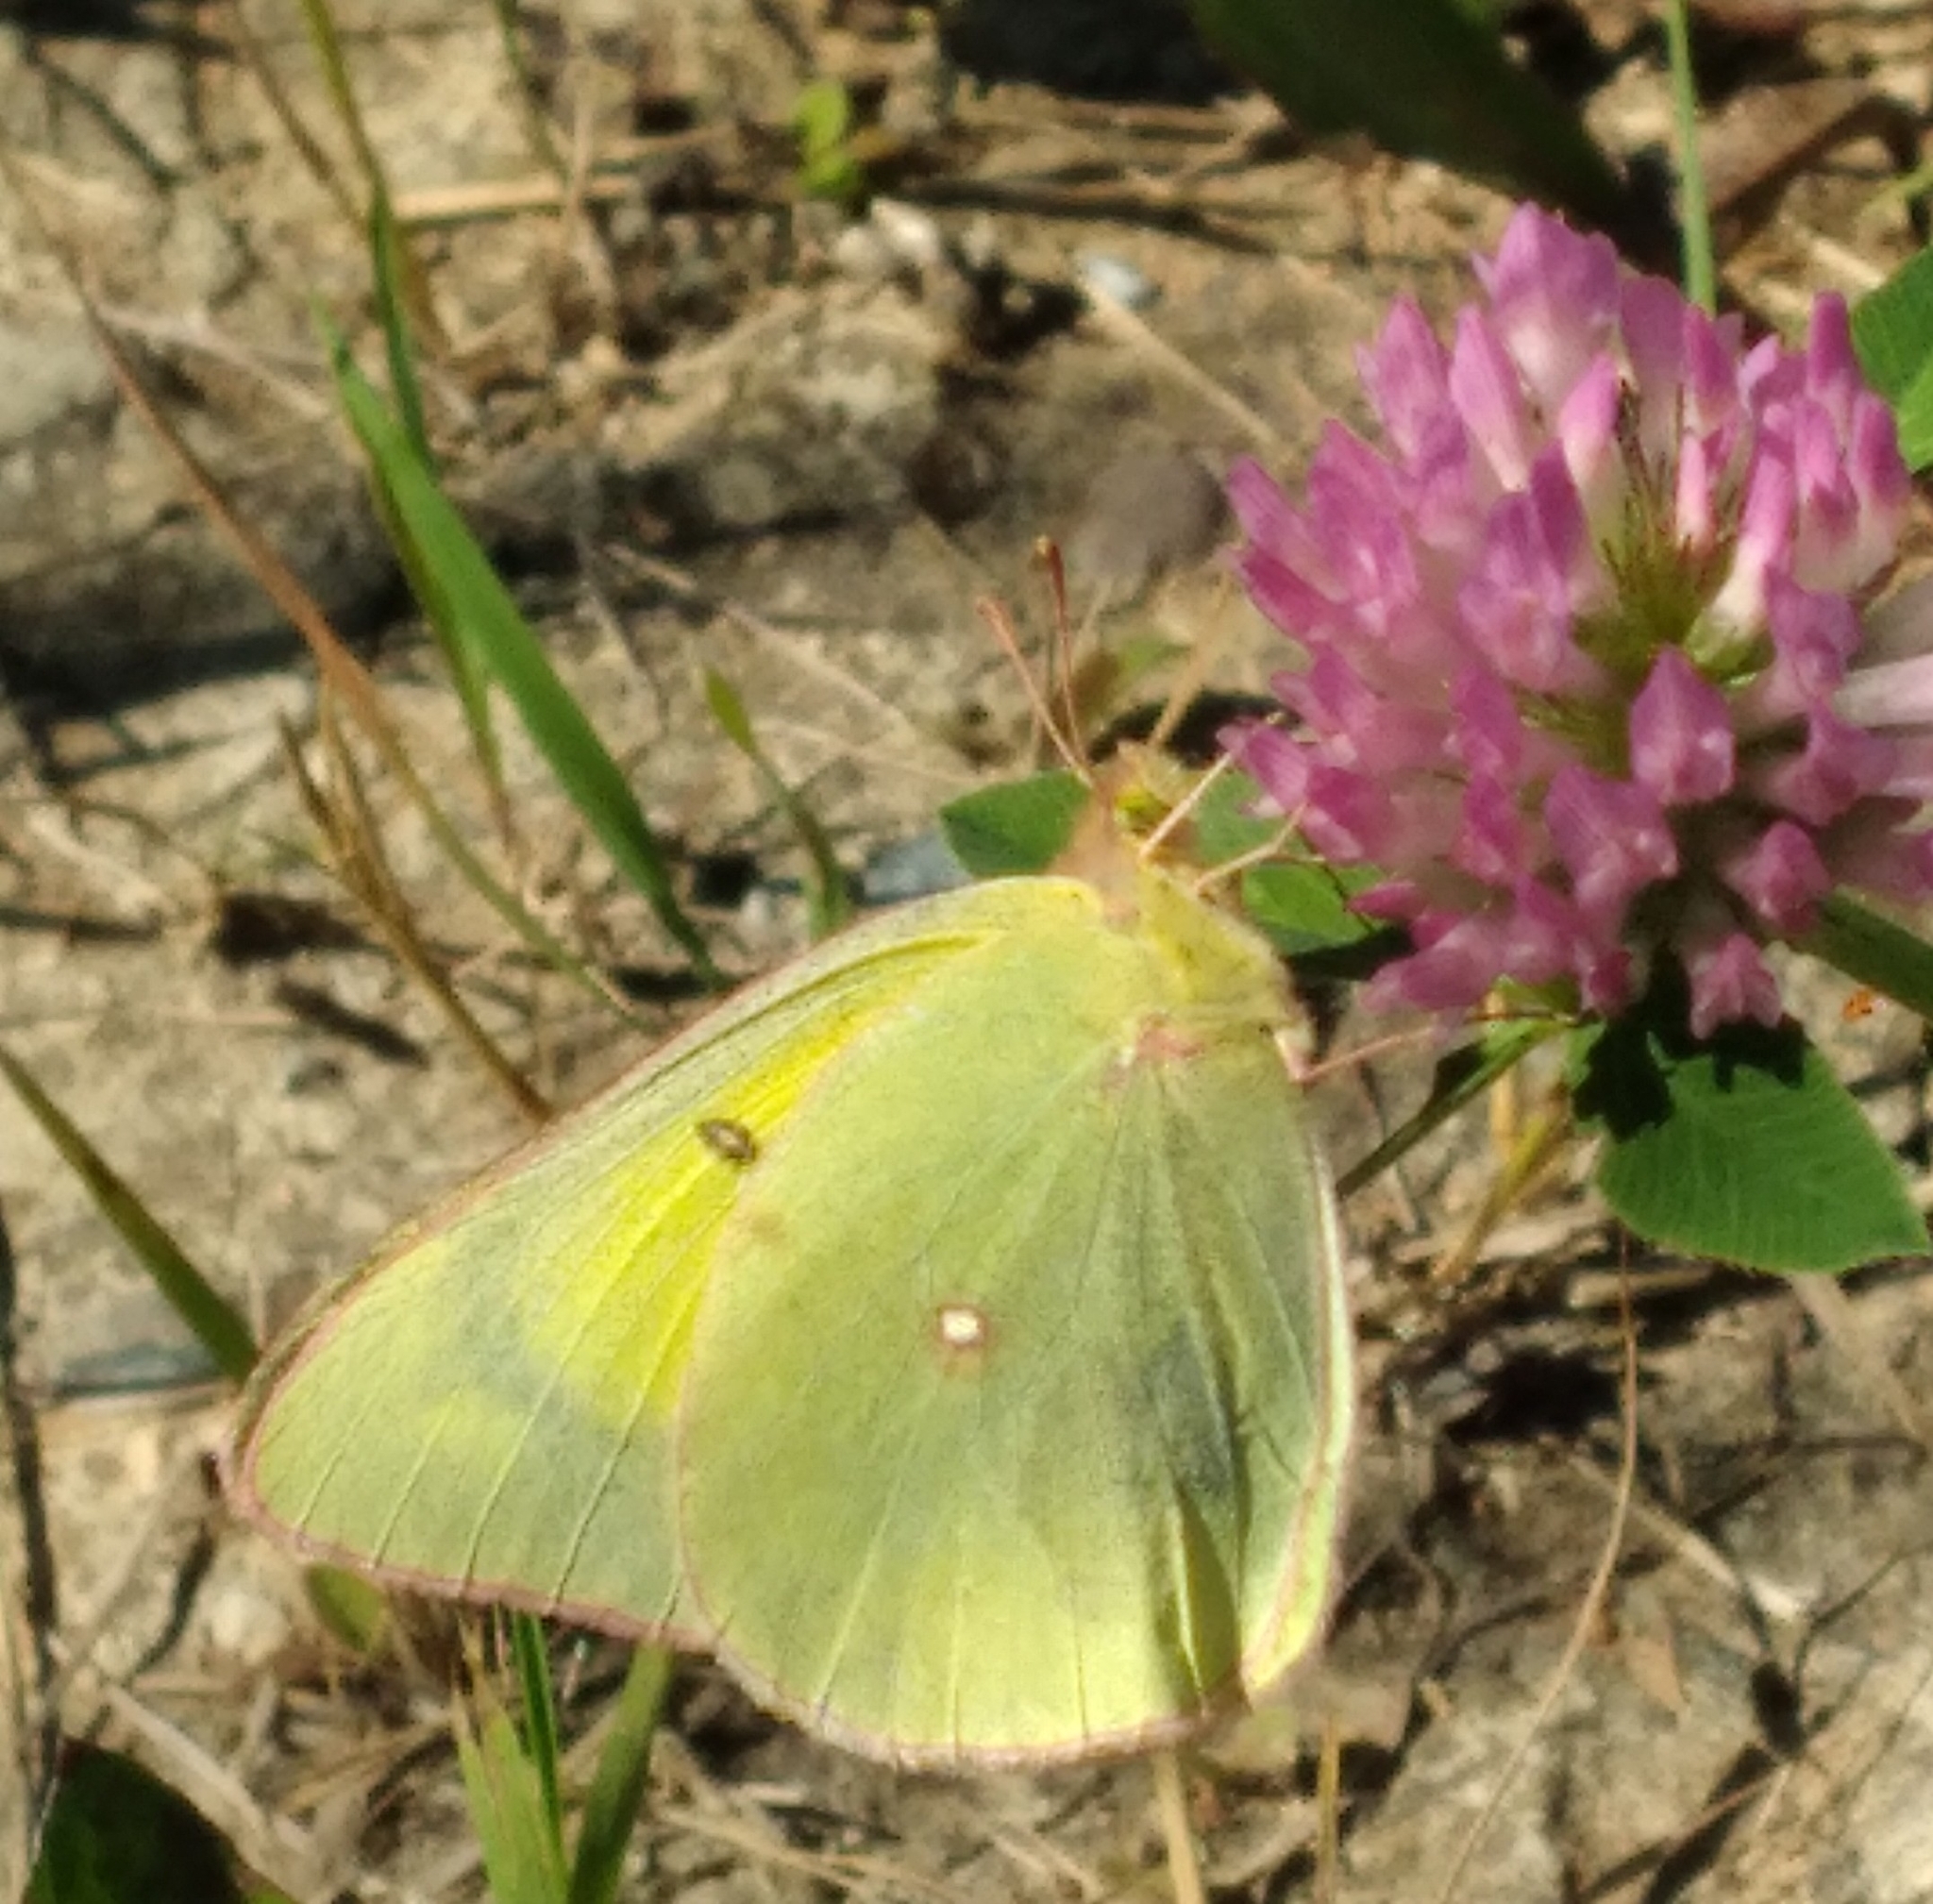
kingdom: Animalia
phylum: Arthropoda
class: Insecta
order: Lepidoptera
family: Pieridae
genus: Colias
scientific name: Colias philodice
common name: Clouded sulphur
